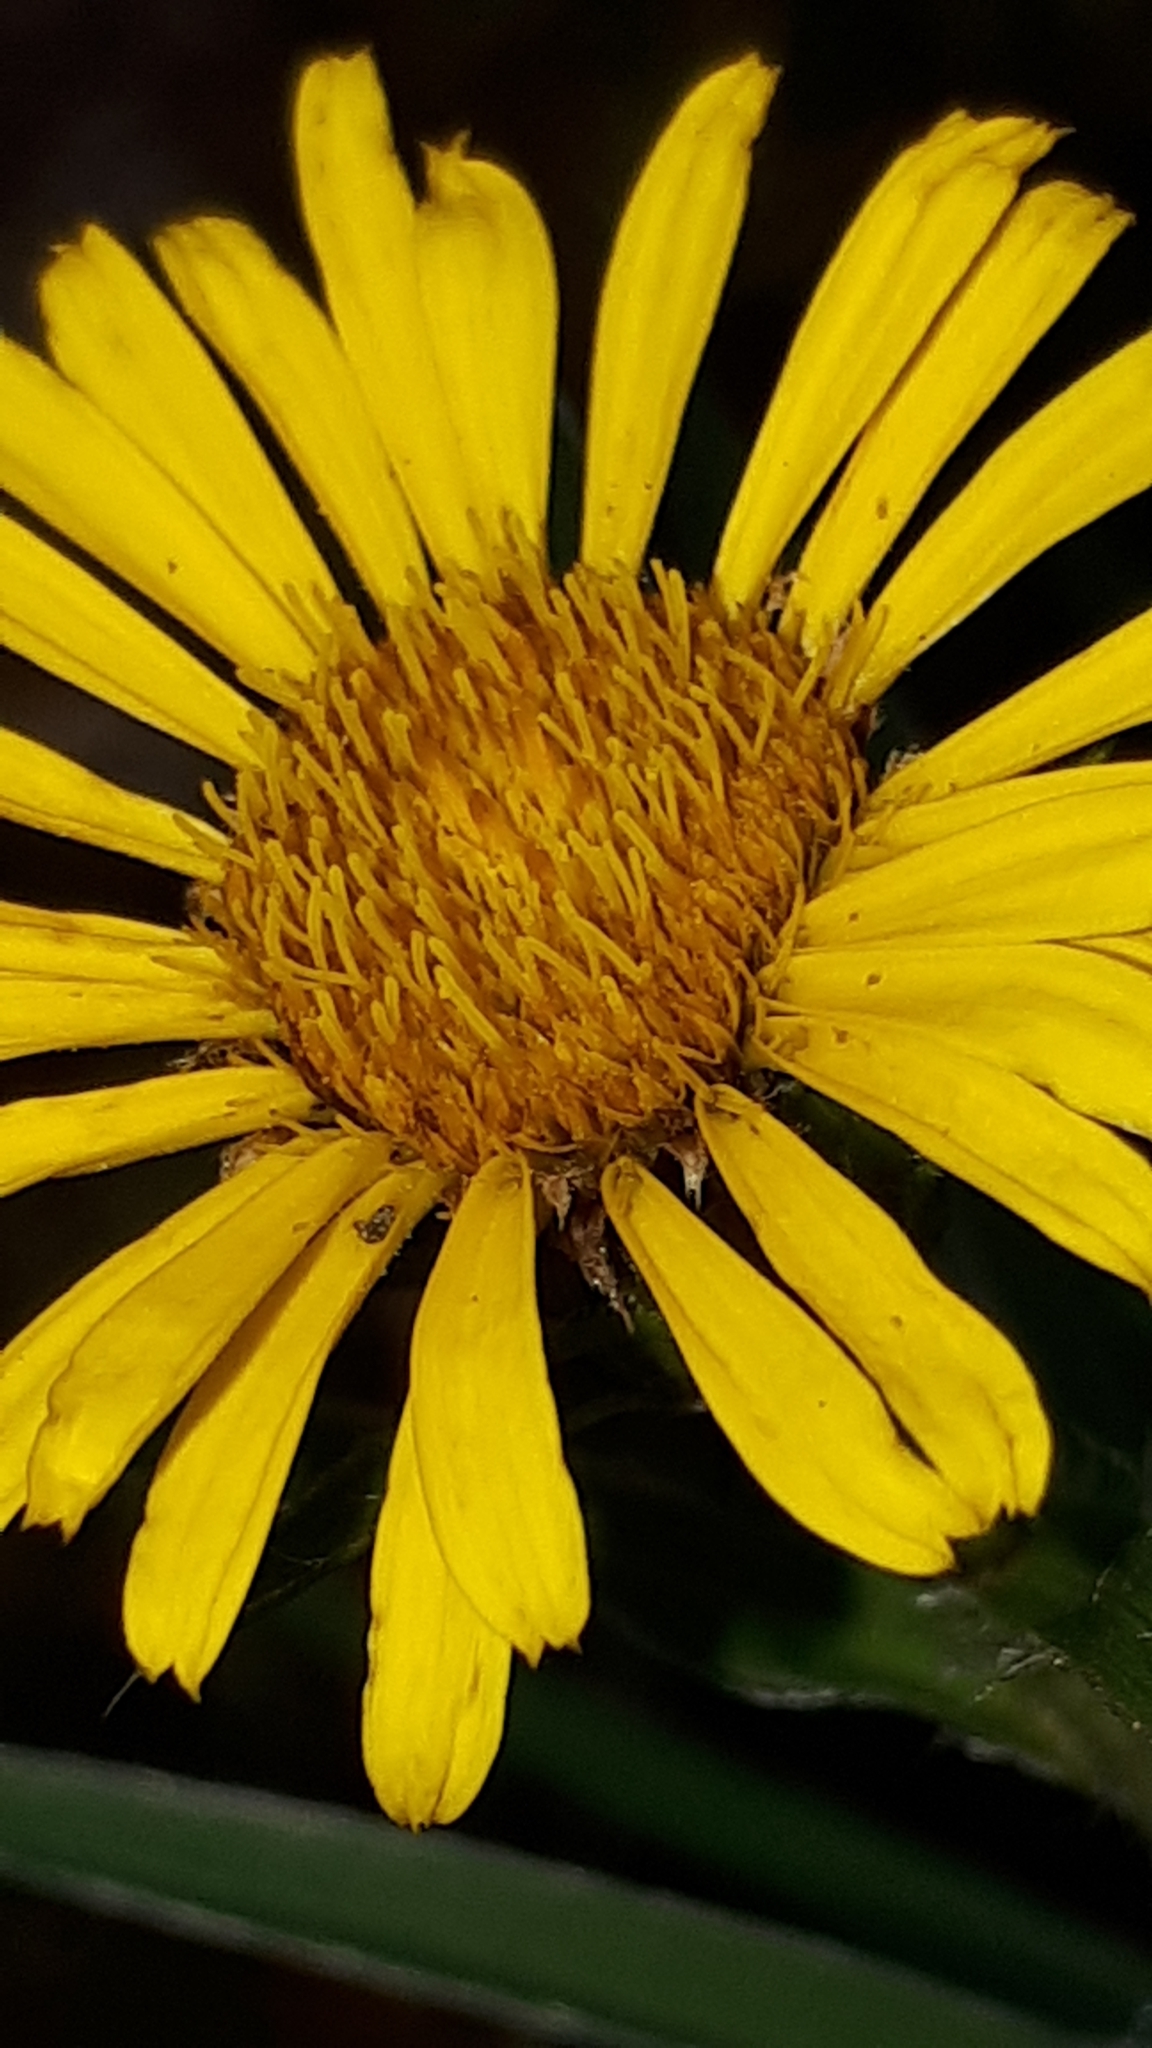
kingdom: Plantae
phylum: Tracheophyta
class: Magnoliopsida
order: Asterales
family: Asteraceae
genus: Pentanema
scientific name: Pentanema ensifolium
